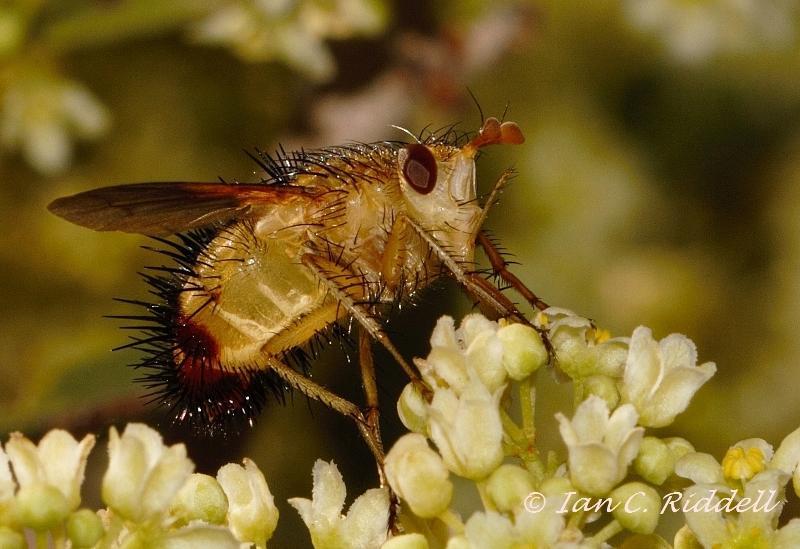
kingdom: Animalia
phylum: Arthropoda
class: Insecta
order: Diptera
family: Tachinidae
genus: Dejeania
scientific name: Dejeania bombylans
